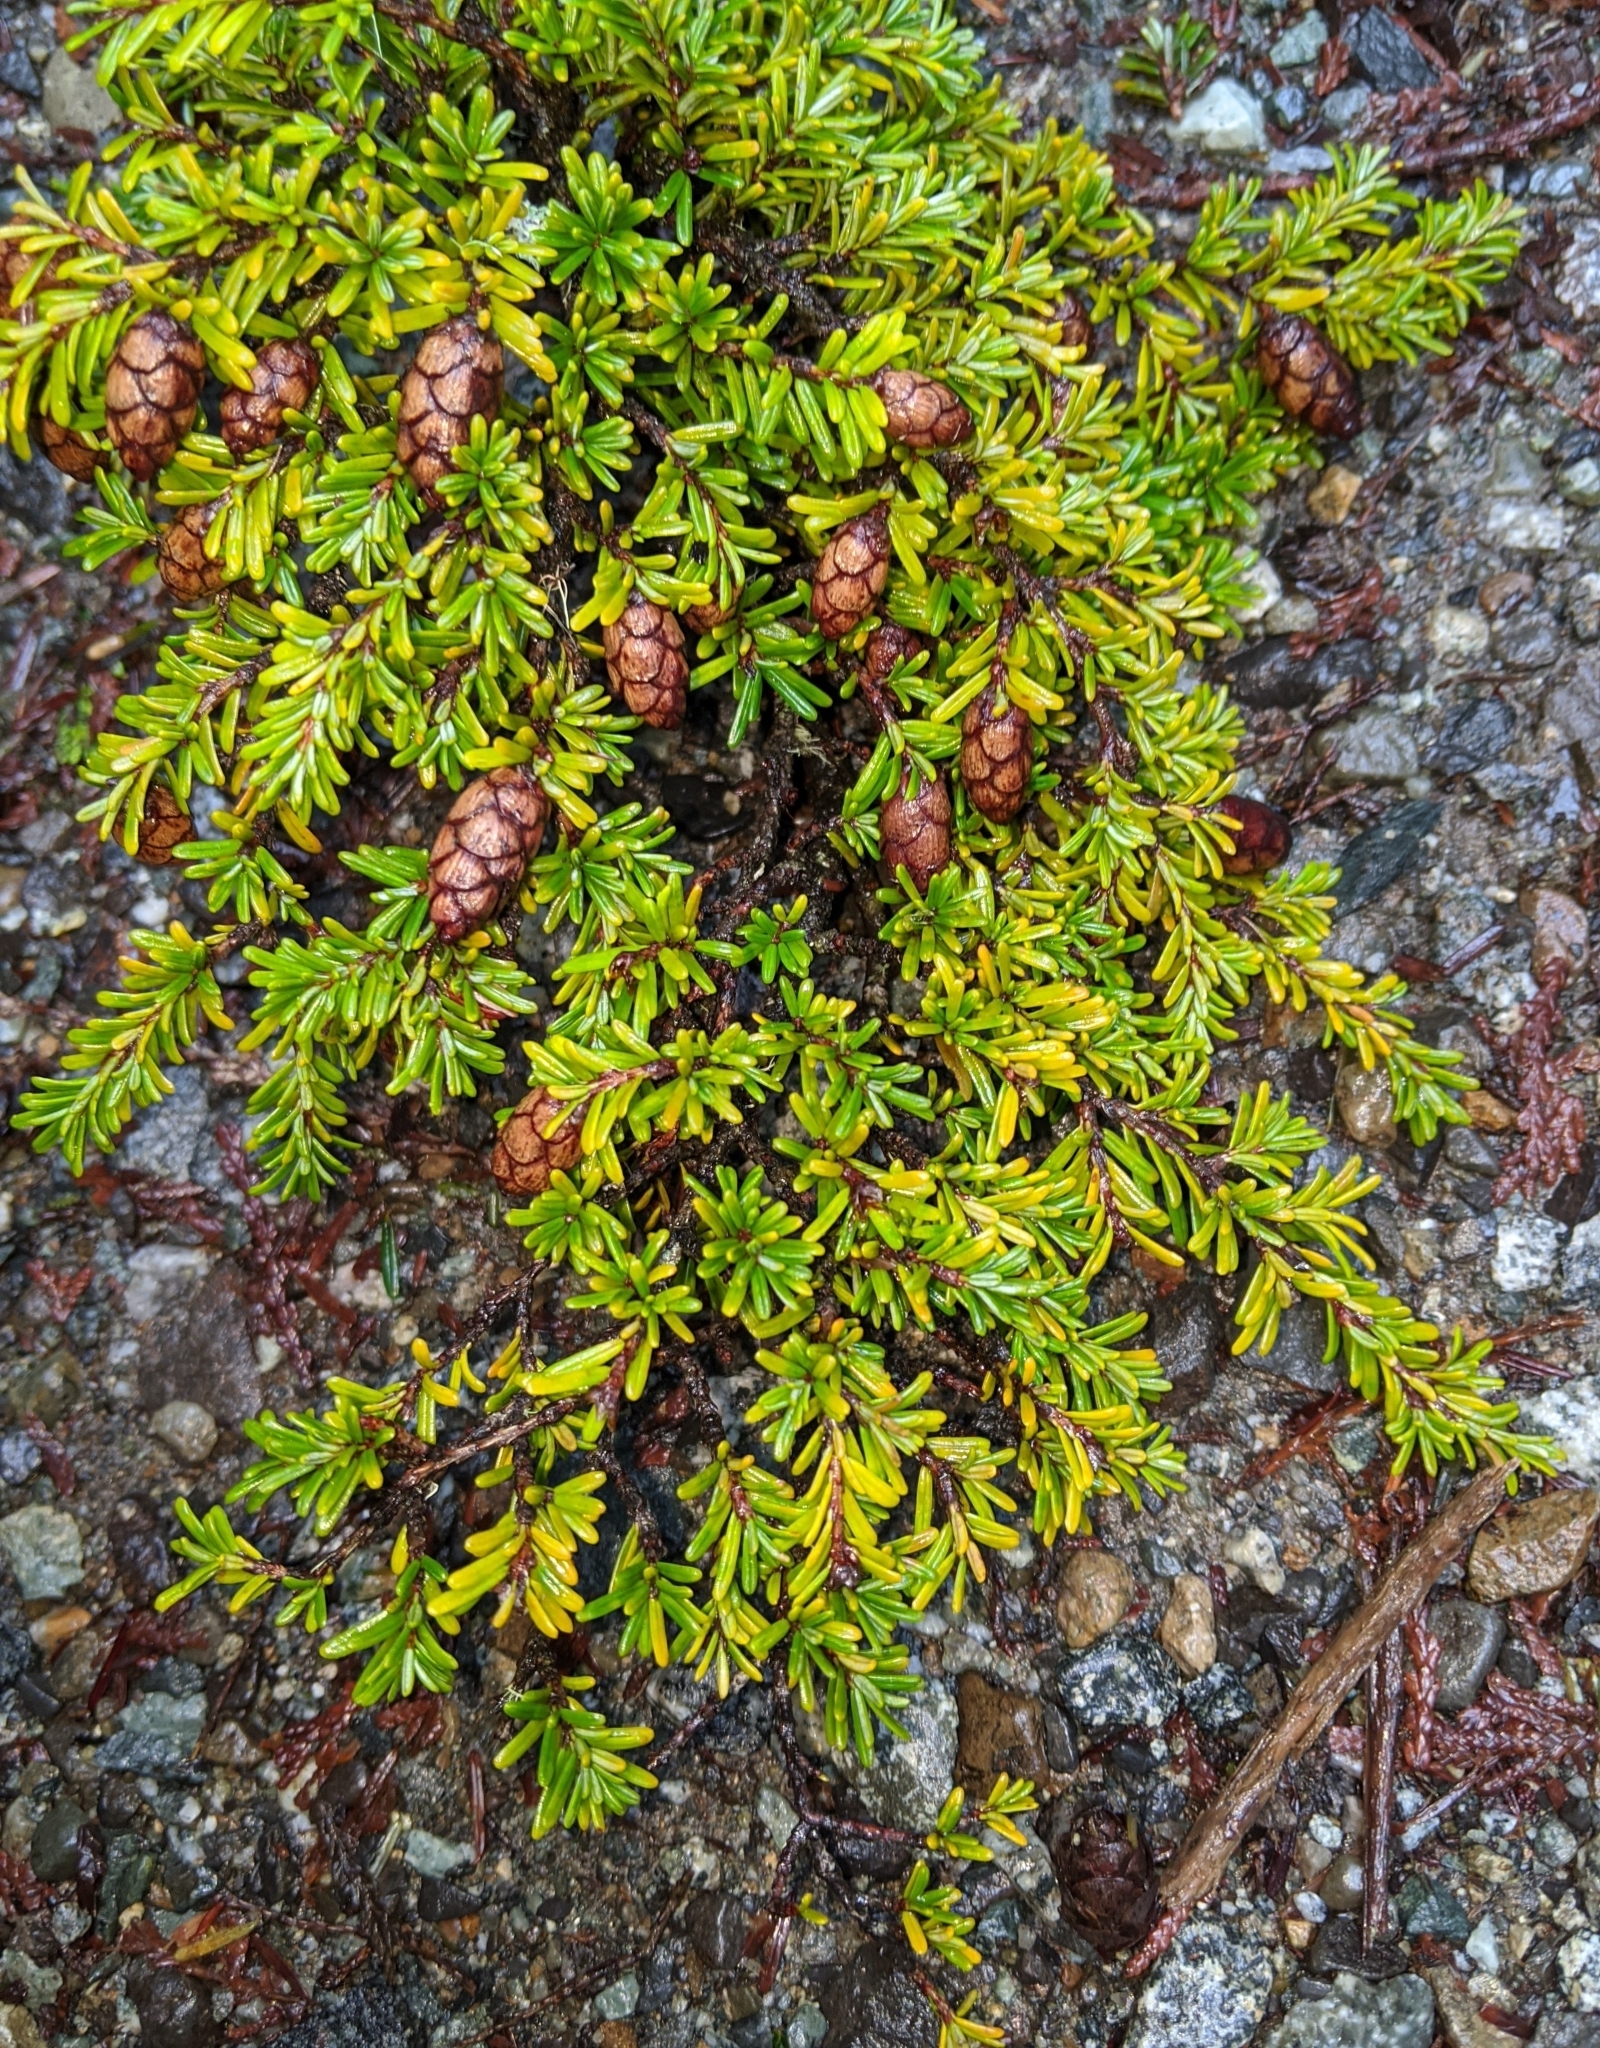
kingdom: Plantae
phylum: Tracheophyta
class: Pinopsida
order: Pinales
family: Pinaceae
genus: Tsuga
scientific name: Tsuga heterophylla
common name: Western hemlock
